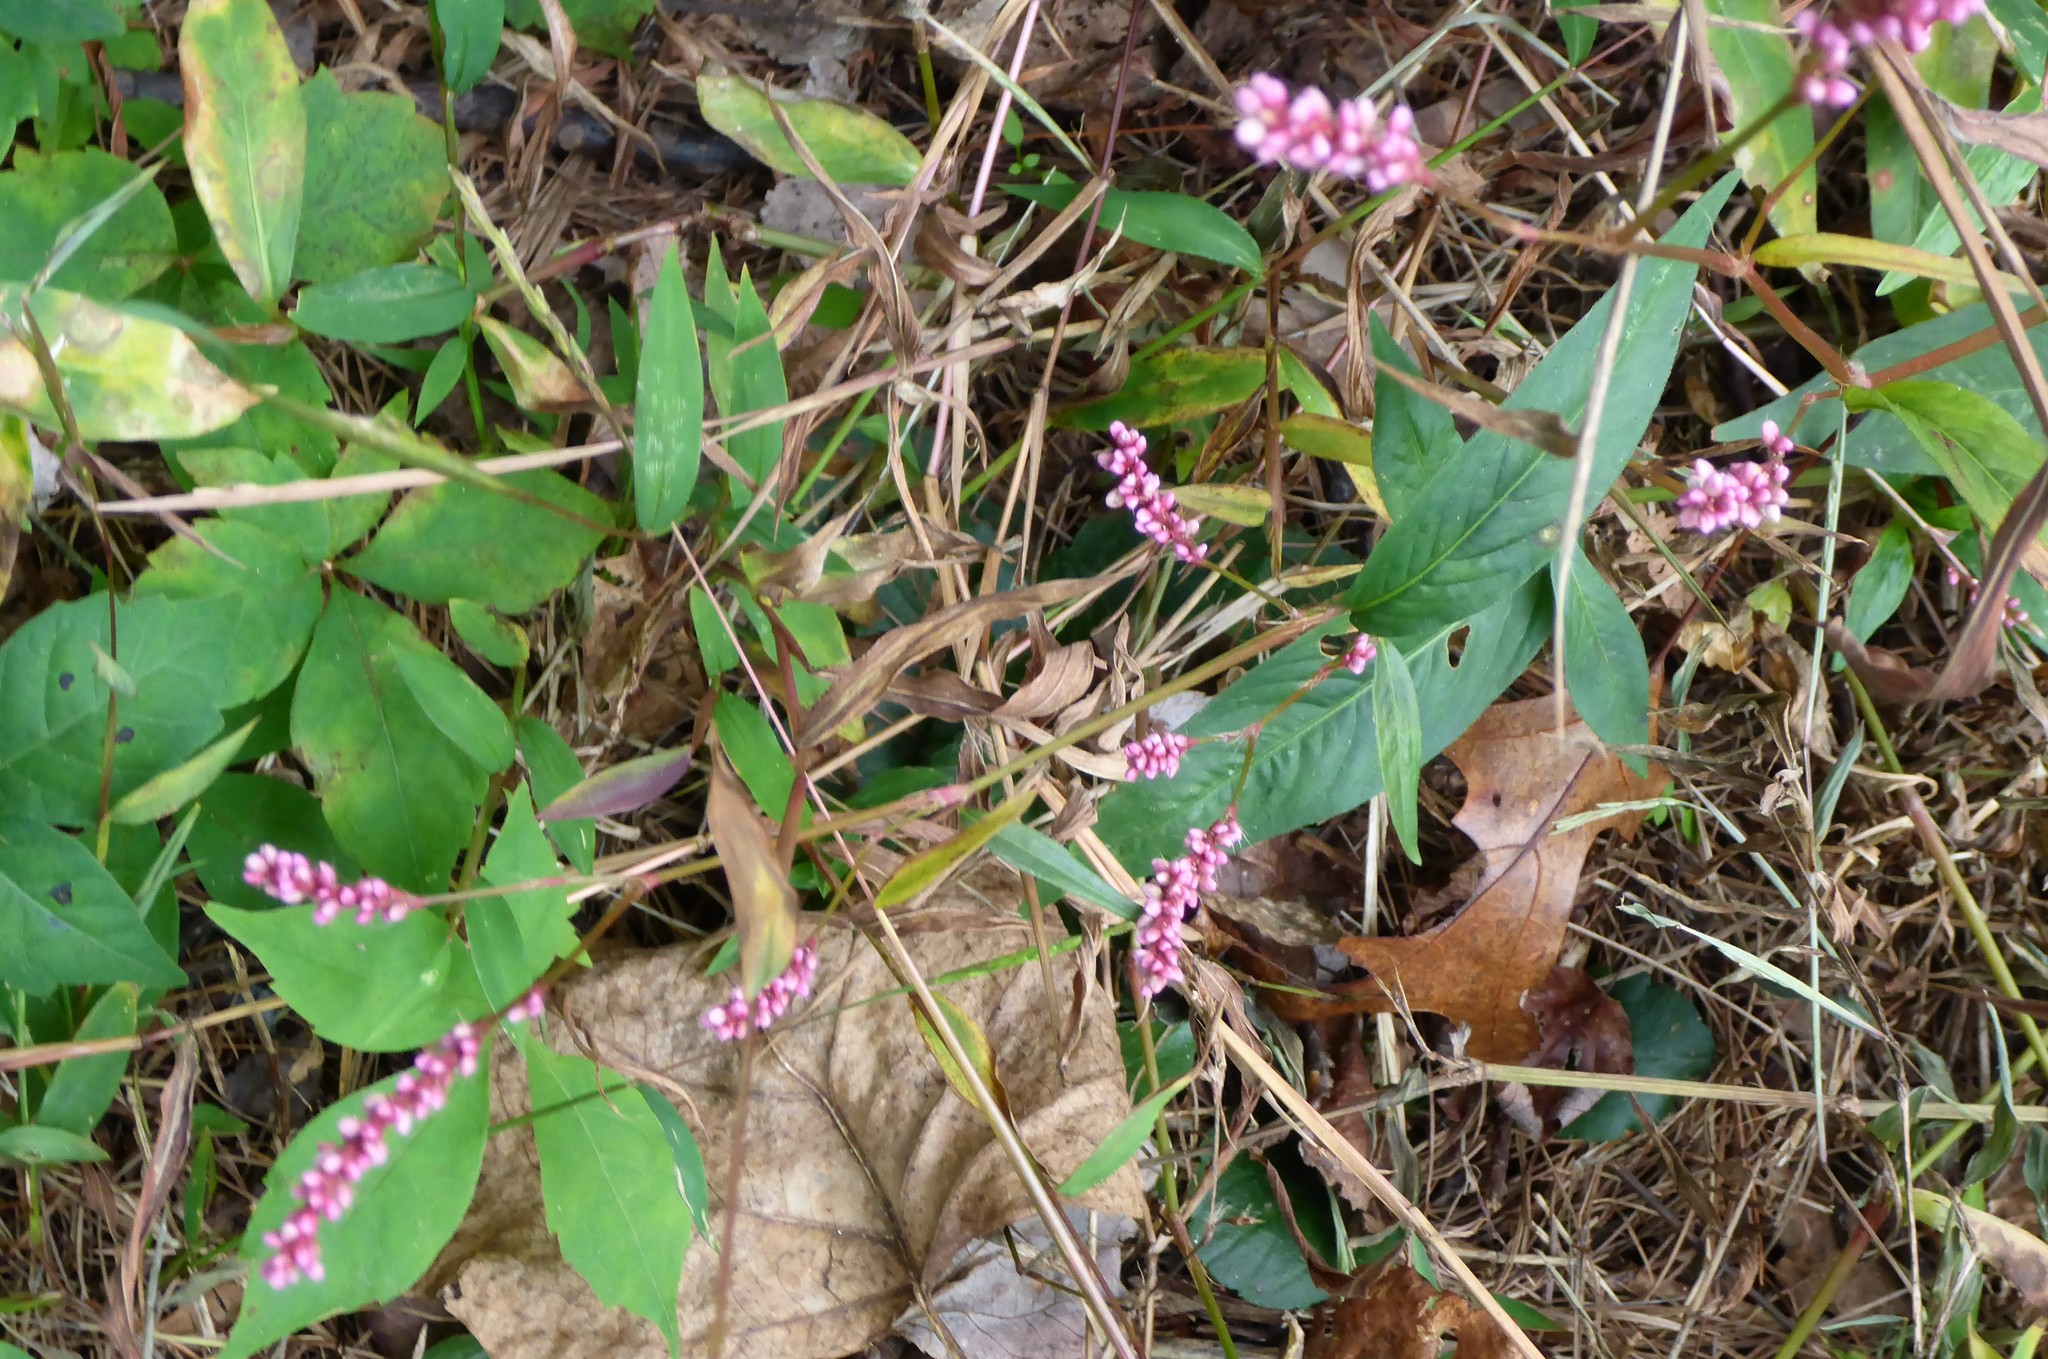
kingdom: Plantae
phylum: Tracheophyta
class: Magnoliopsida
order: Caryophyllales
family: Polygonaceae
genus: Persicaria
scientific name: Persicaria longiseta
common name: Bristly lady's-thumb
